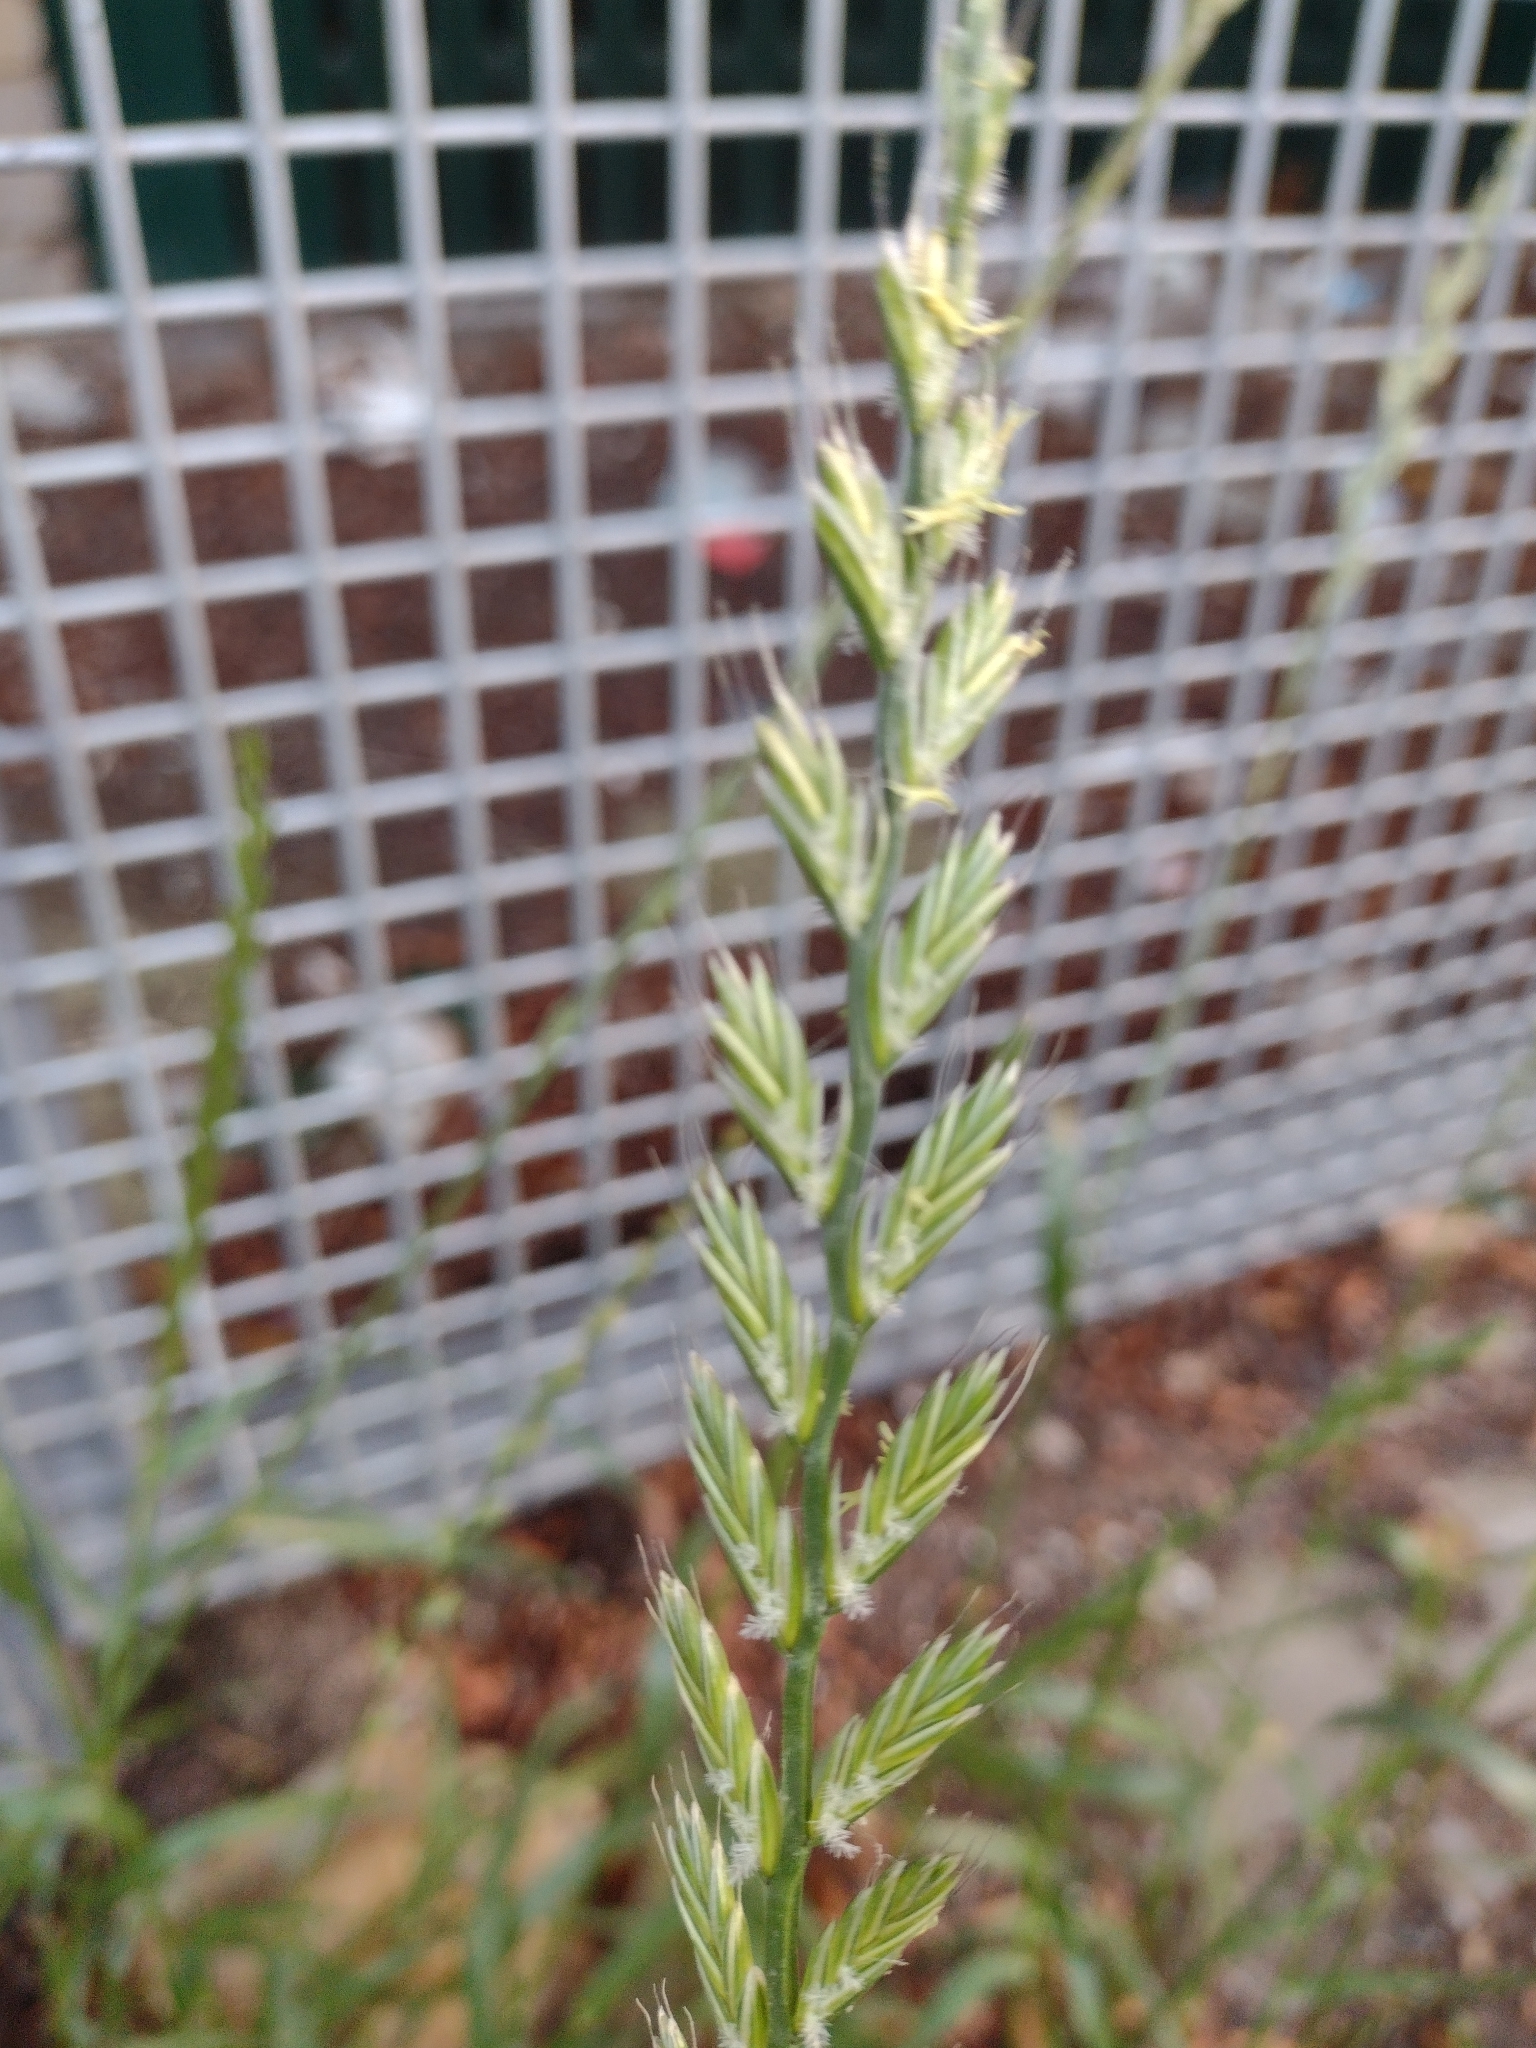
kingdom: Plantae
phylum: Tracheophyta
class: Liliopsida
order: Poales
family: Poaceae
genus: Lolium
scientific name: Lolium perenne
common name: Perennial ryegrass
